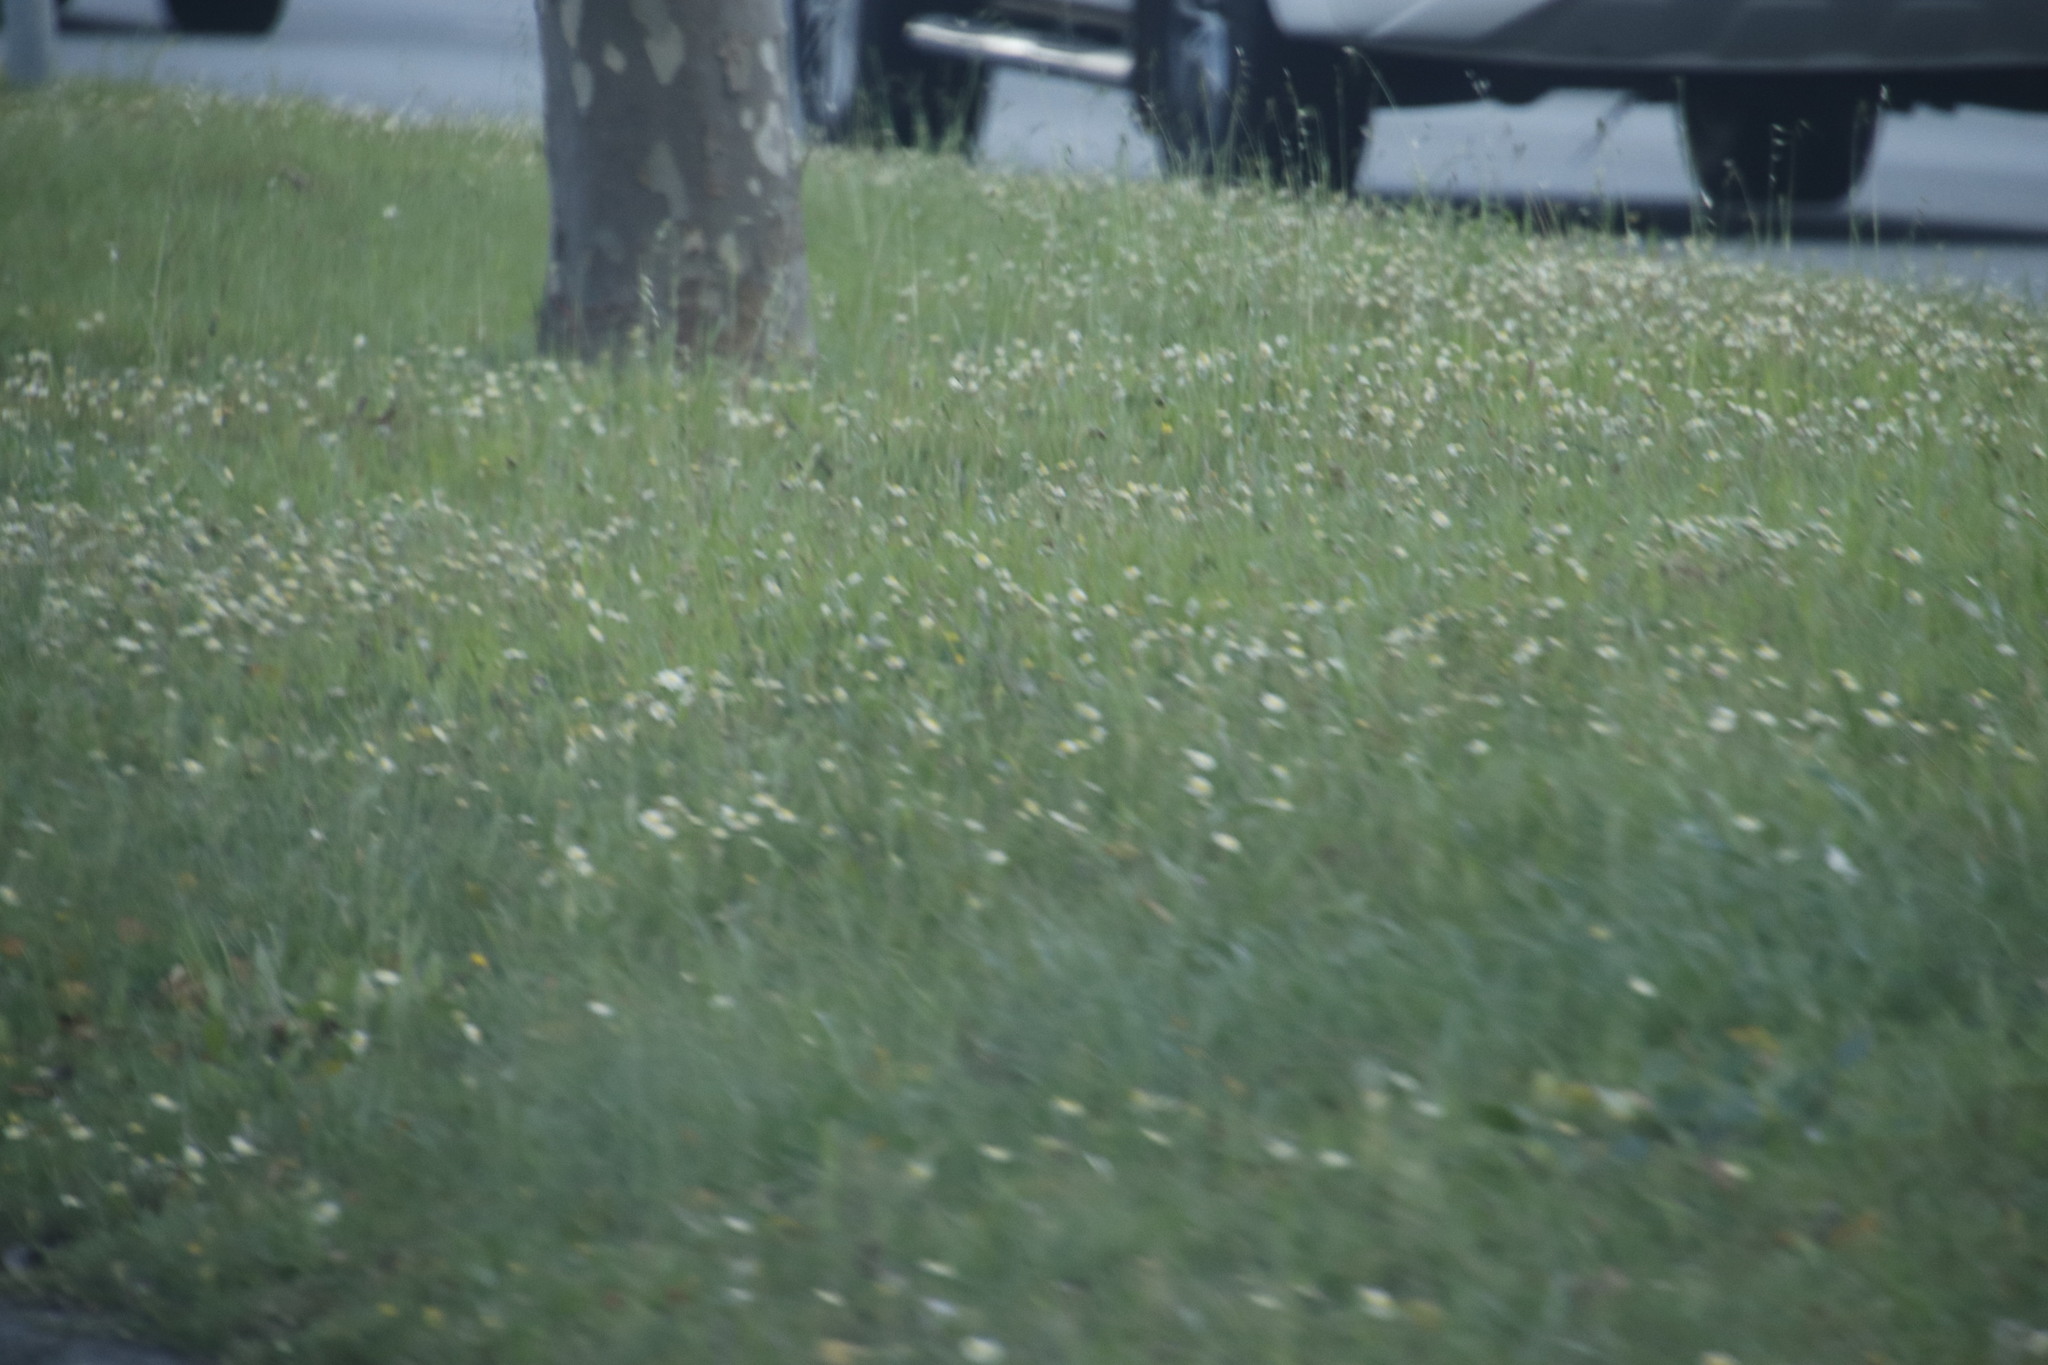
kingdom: Plantae
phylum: Tracheophyta
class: Magnoliopsida
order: Asterales
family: Asteraceae
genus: Cotula
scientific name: Cotula turbinata
